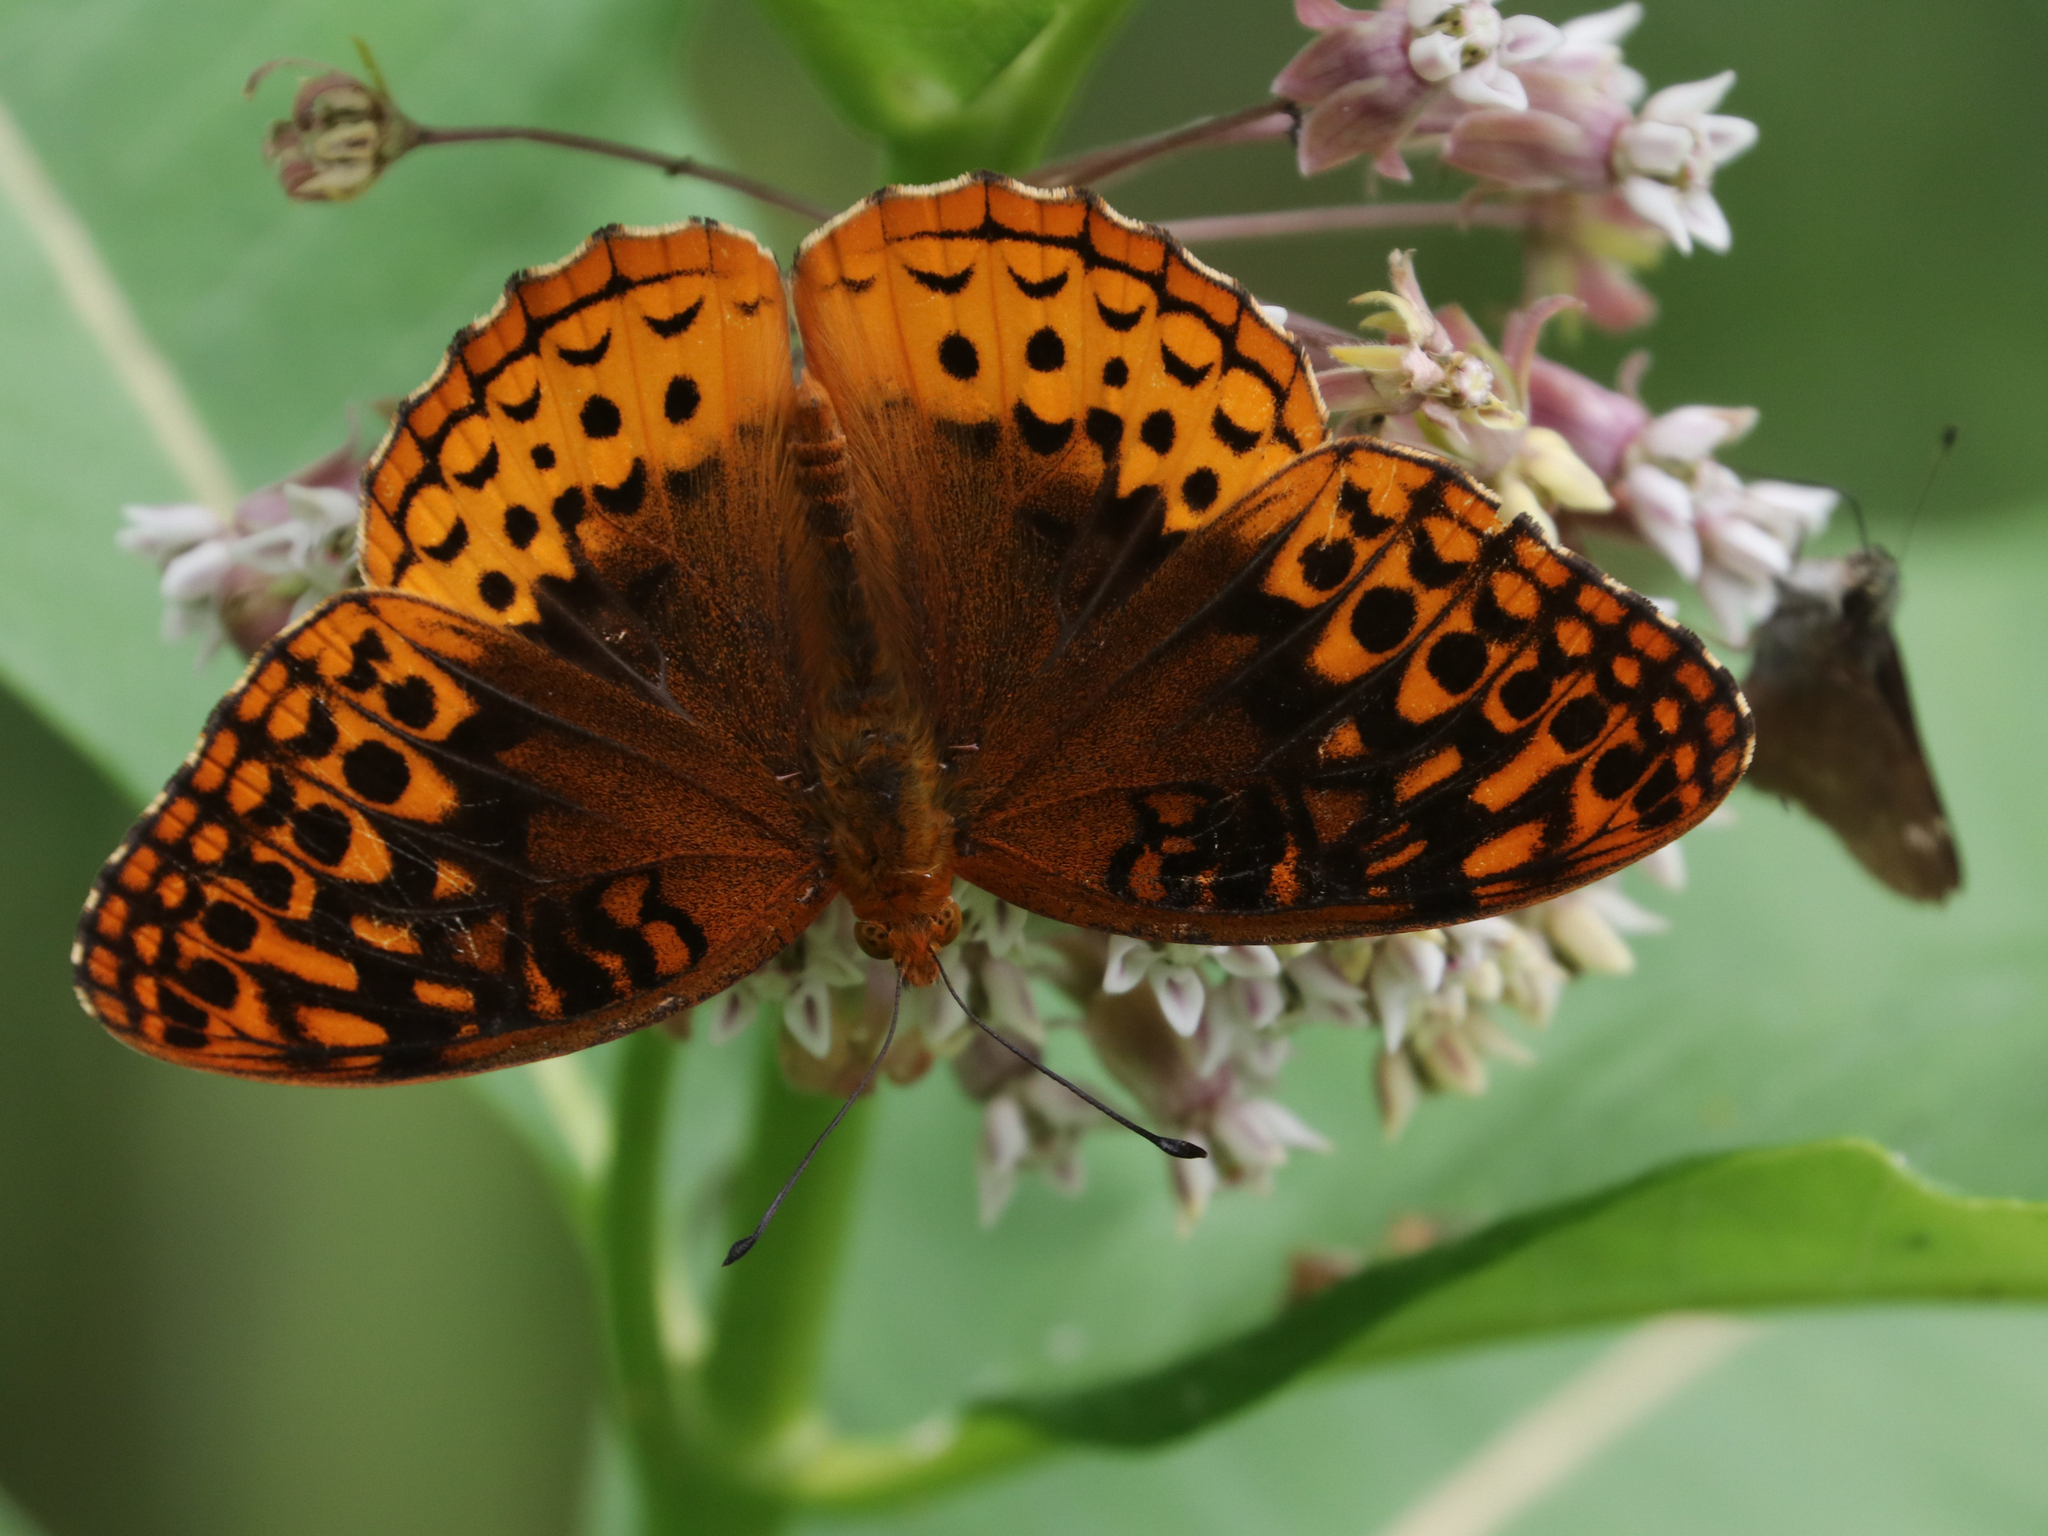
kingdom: Animalia
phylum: Arthropoda
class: Insecta
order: Lepidoptera
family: Nymphalidae
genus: Speyeria
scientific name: Speyeria cybele
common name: Great spangled fritillary
